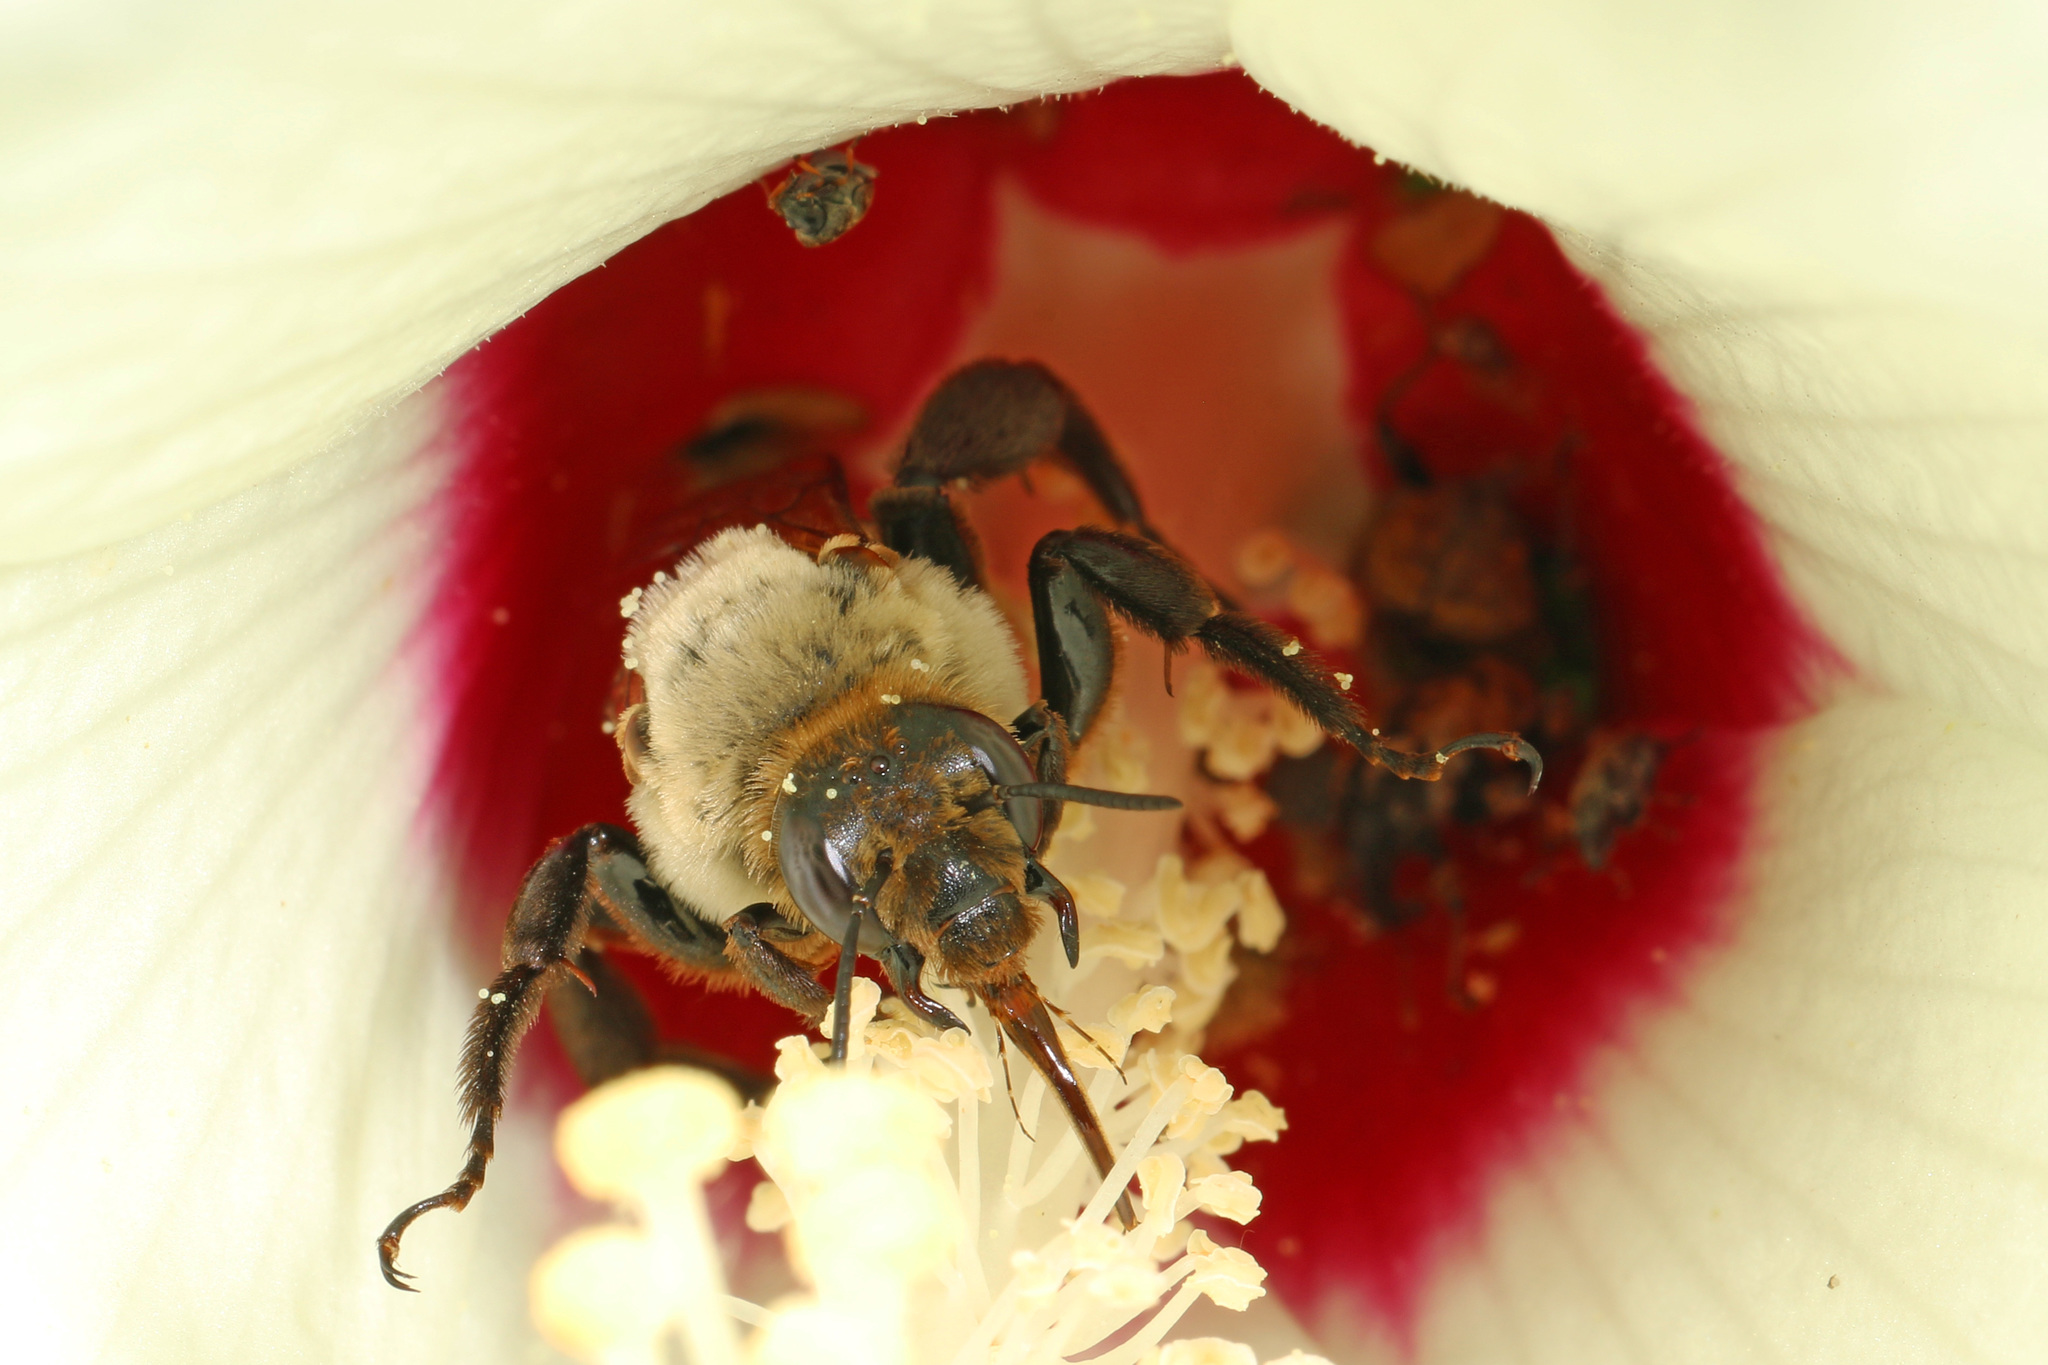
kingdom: Animalia
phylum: Arthropoda
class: Insecta
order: Hymenoptera
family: Apidae
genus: Ptilothrix
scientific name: Ptilothrix bombiformis
